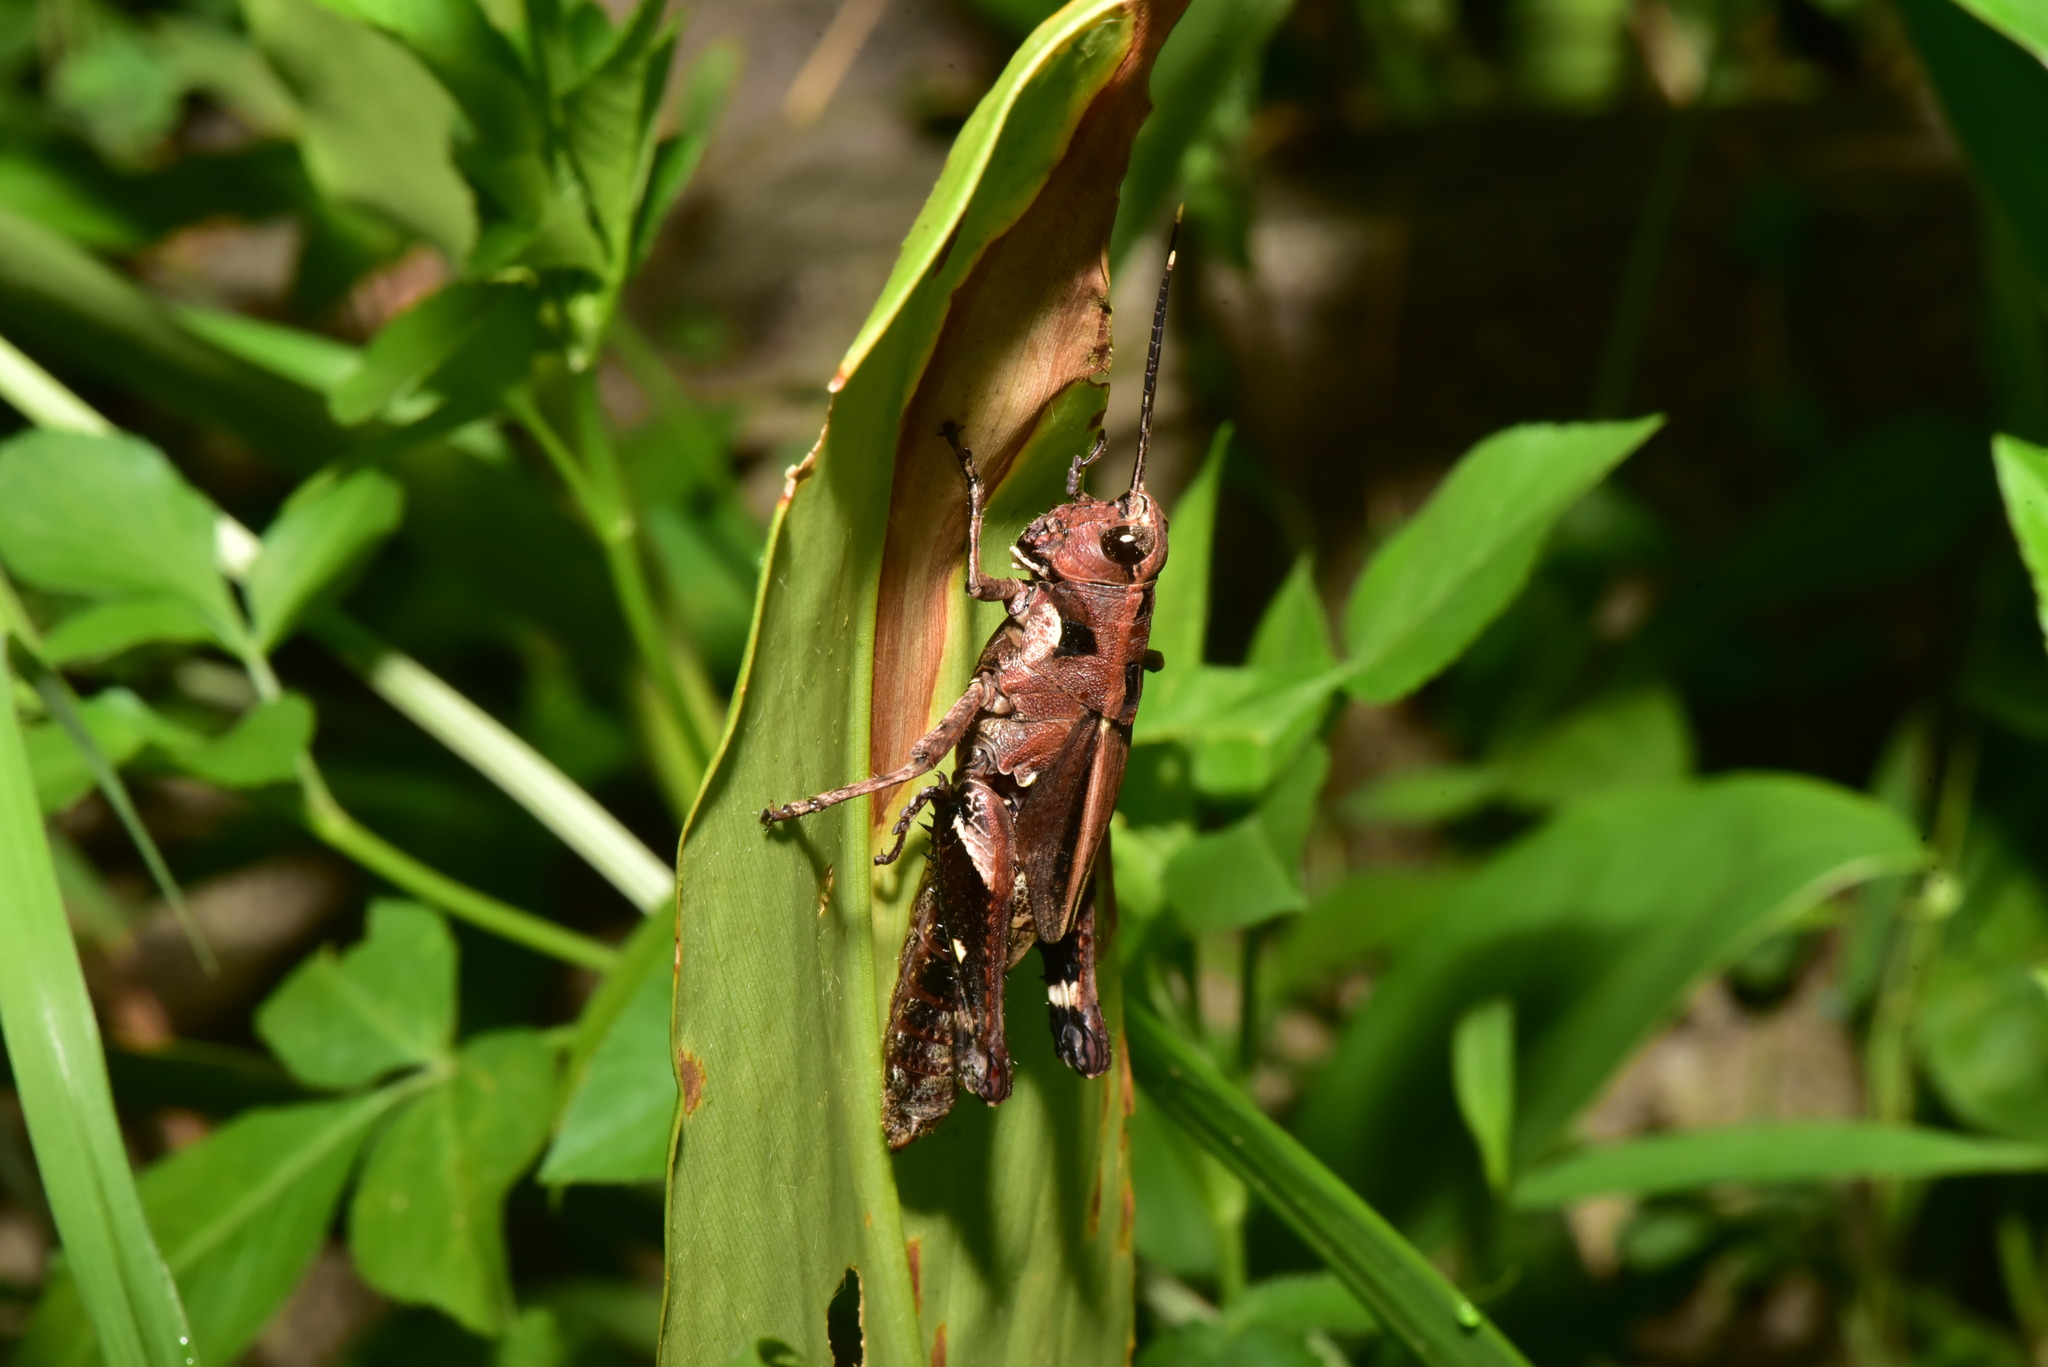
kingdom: Animalia
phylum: Arthropoda
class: Insecta
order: Orthoptera
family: Acrididae
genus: Traulia
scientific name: Traulia ornata
